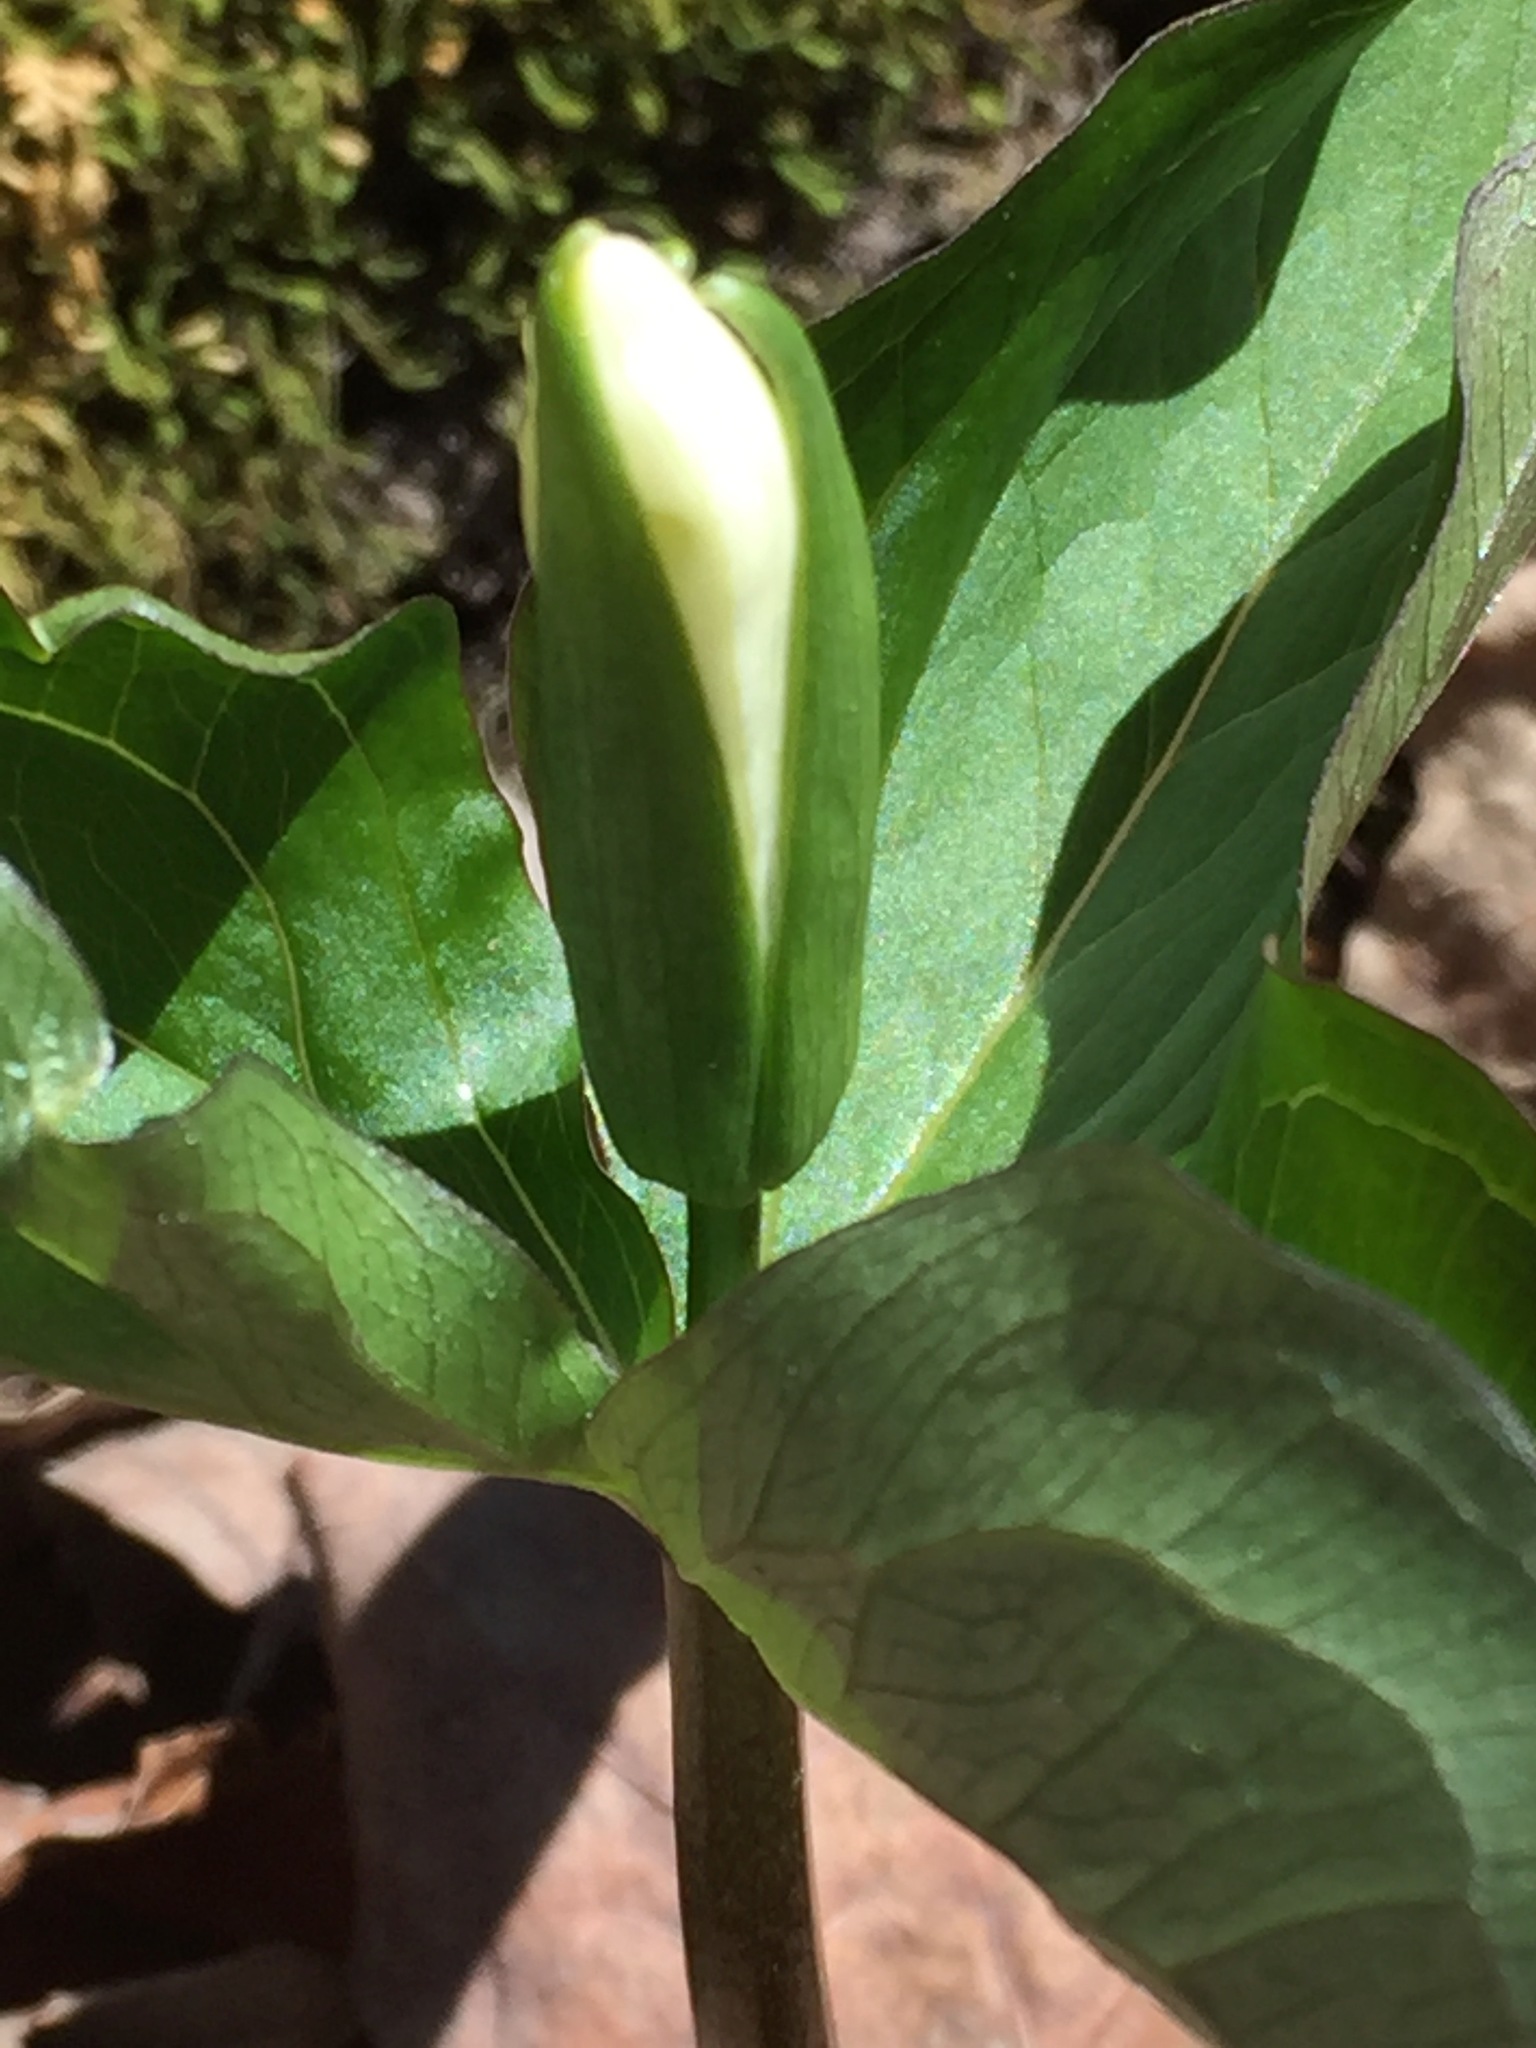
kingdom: Plantae
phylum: Tracheophyta
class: Liliopsida
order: Liliales
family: Melanthiaceae
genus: Trillium
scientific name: Trillium grandiflorum
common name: Great white trillium
